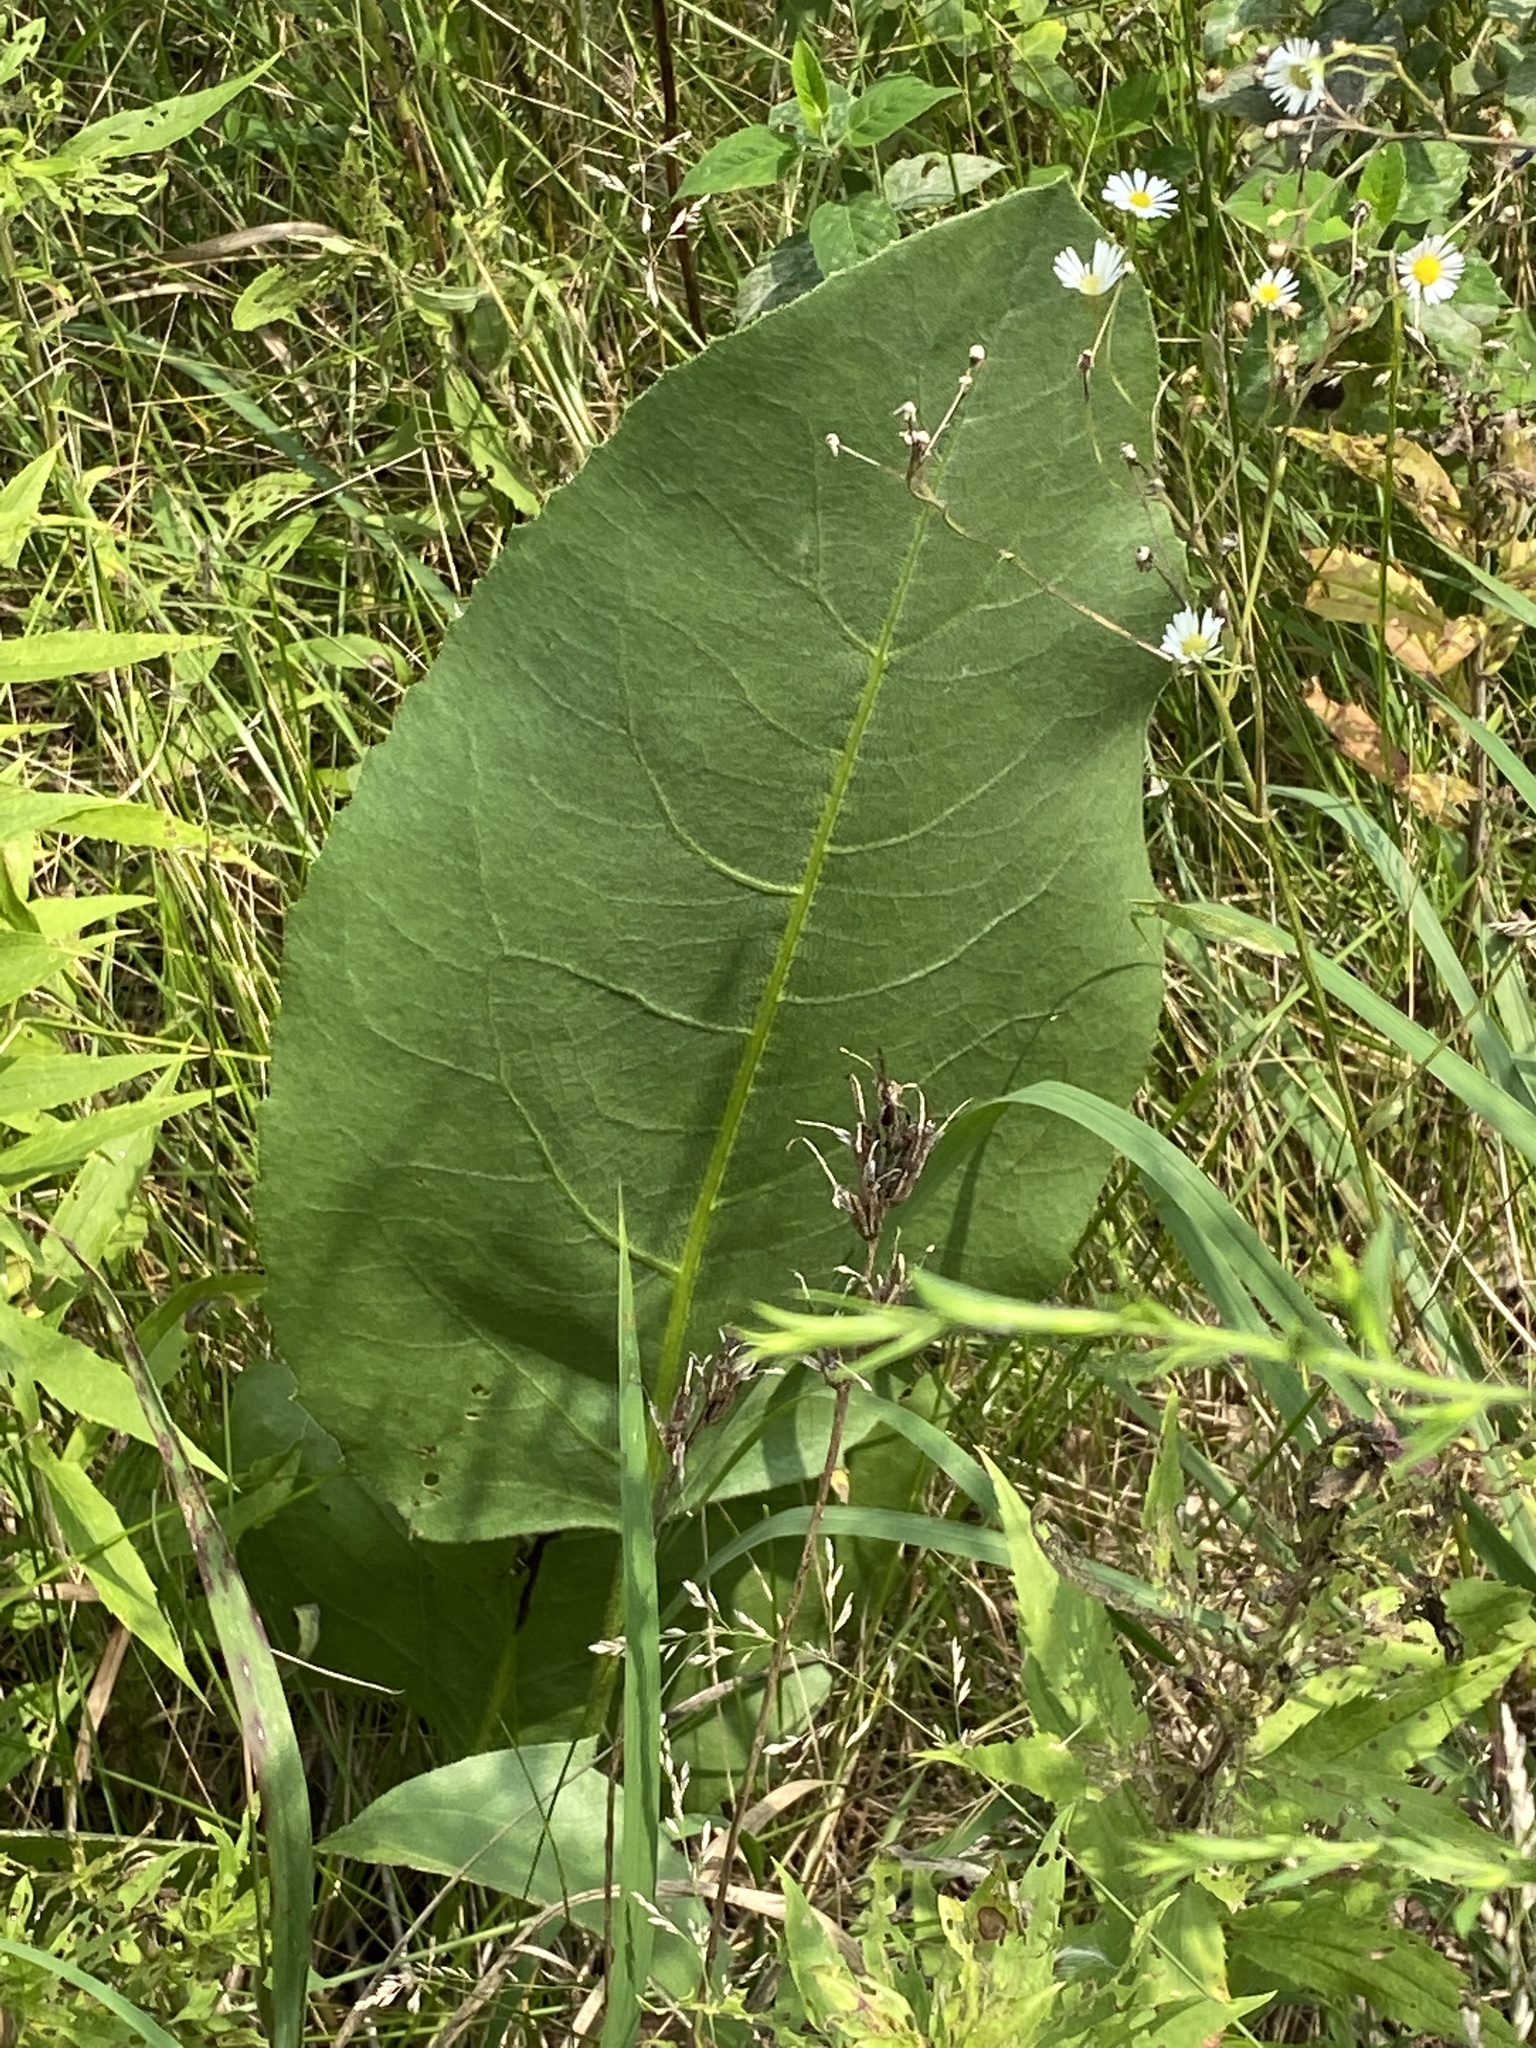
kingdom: Plantae
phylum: Tracheophyta
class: Magnoliopsida
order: Asterales
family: Asteraceae
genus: Silphium
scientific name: Silphium terebinthinaceum
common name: Basal-leaf rosinweed
